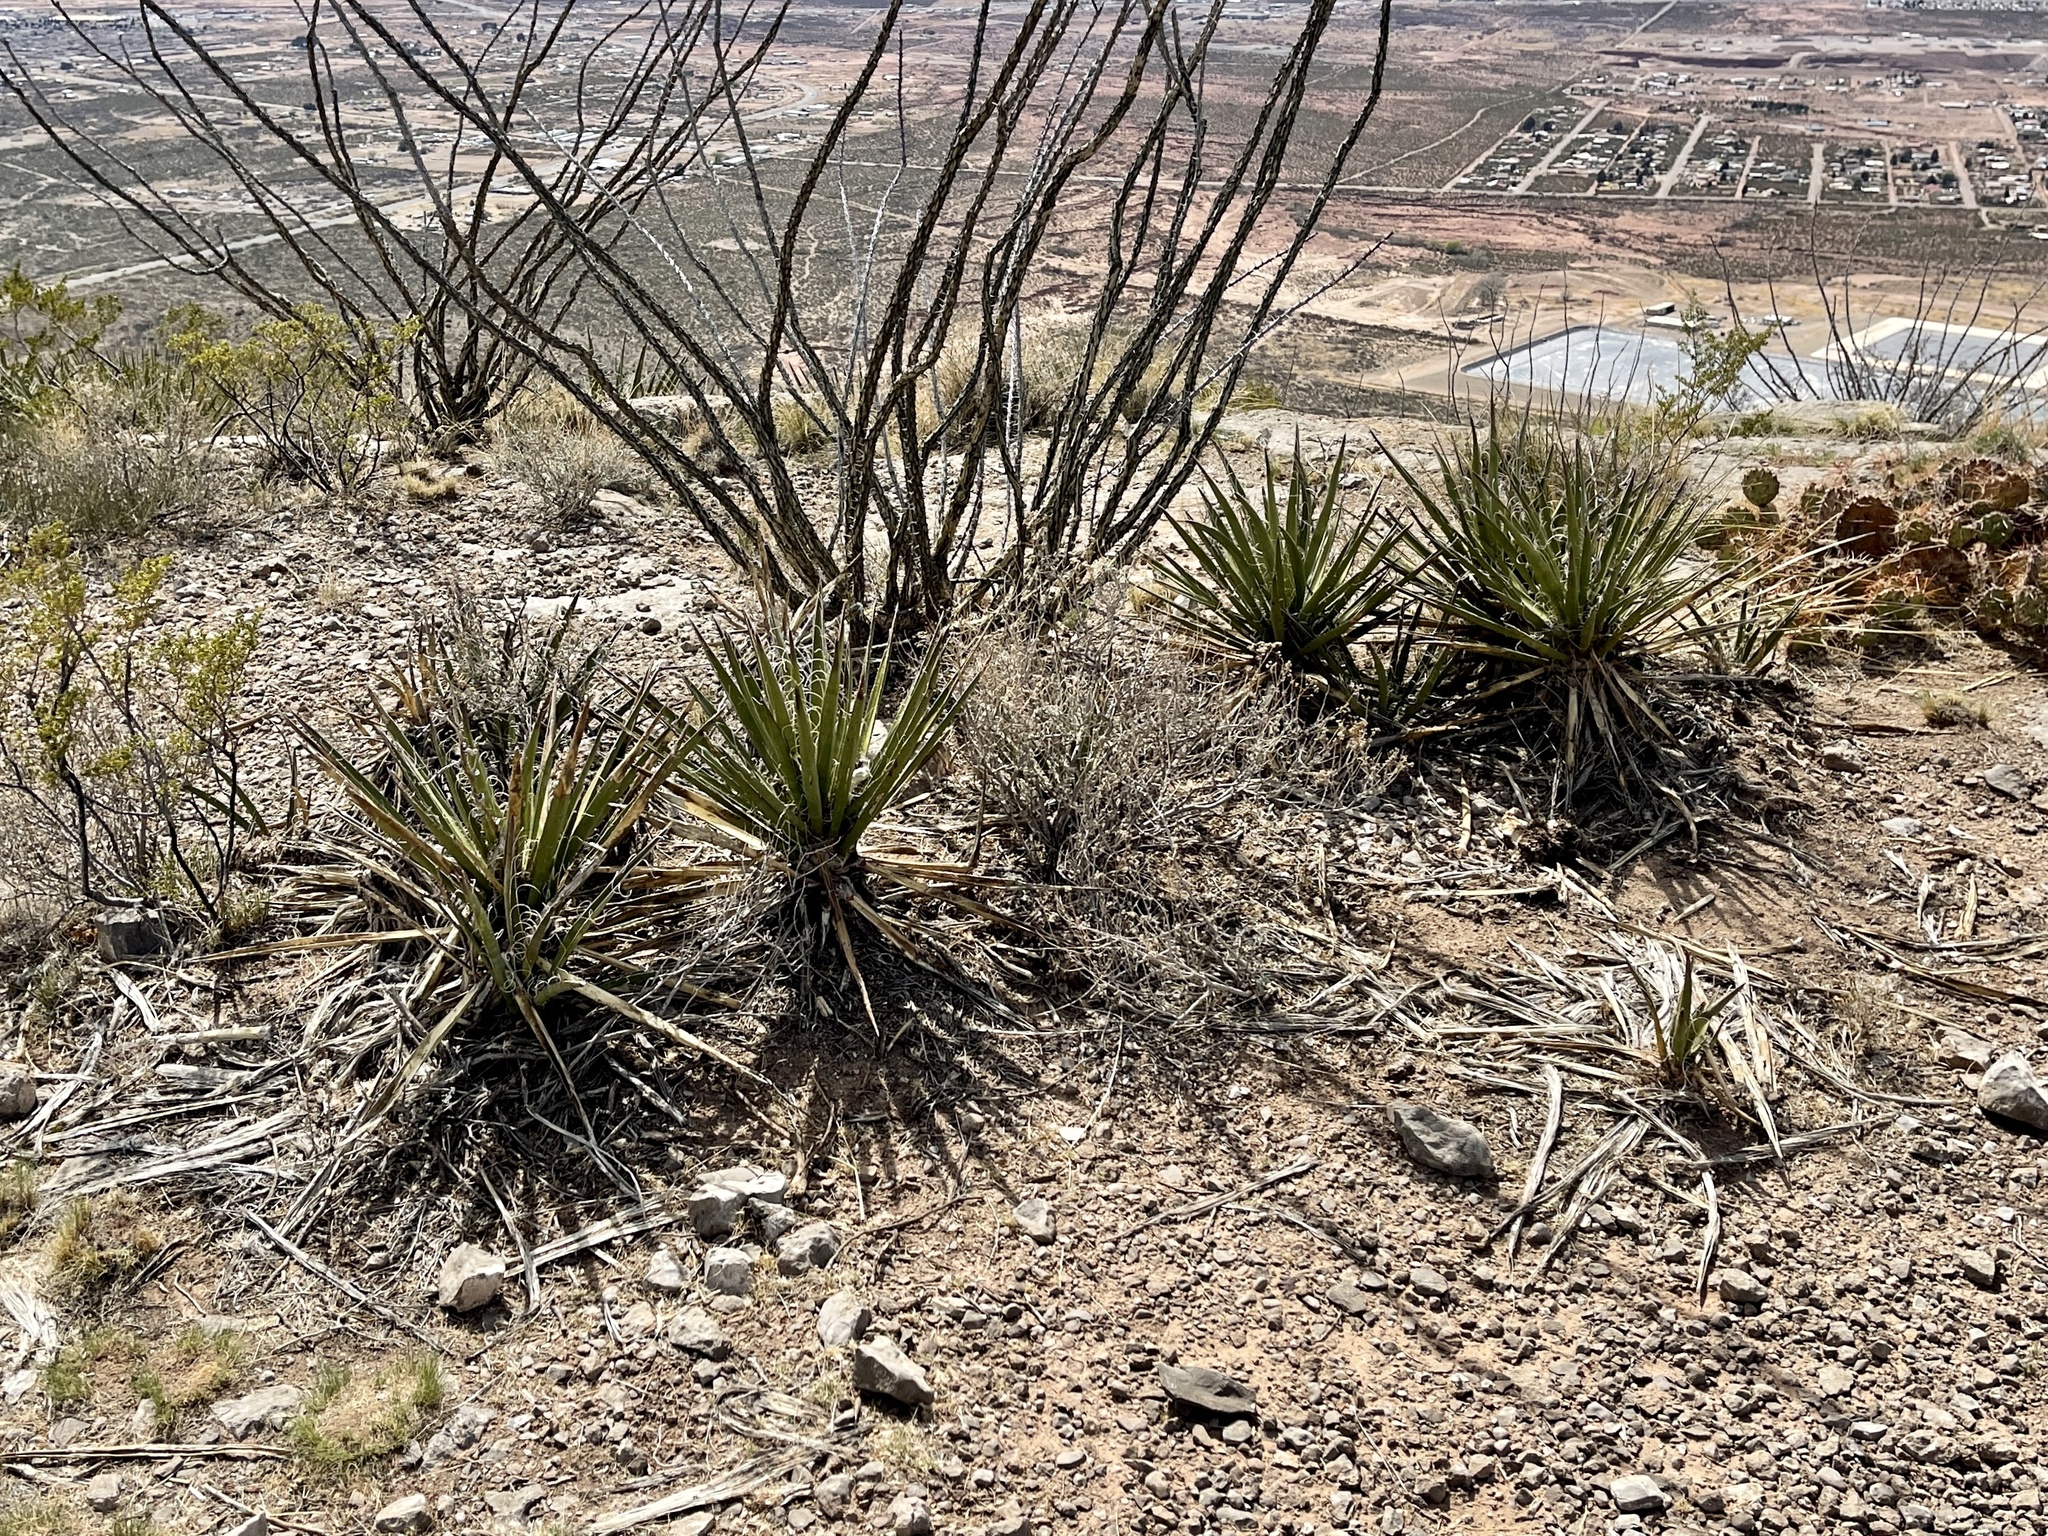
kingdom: Plantae
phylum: Tracheophyta
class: Liliopsida
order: Asparagales
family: Asparagaceae
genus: Yucca
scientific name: Yucca baccata
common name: Banana yucca
